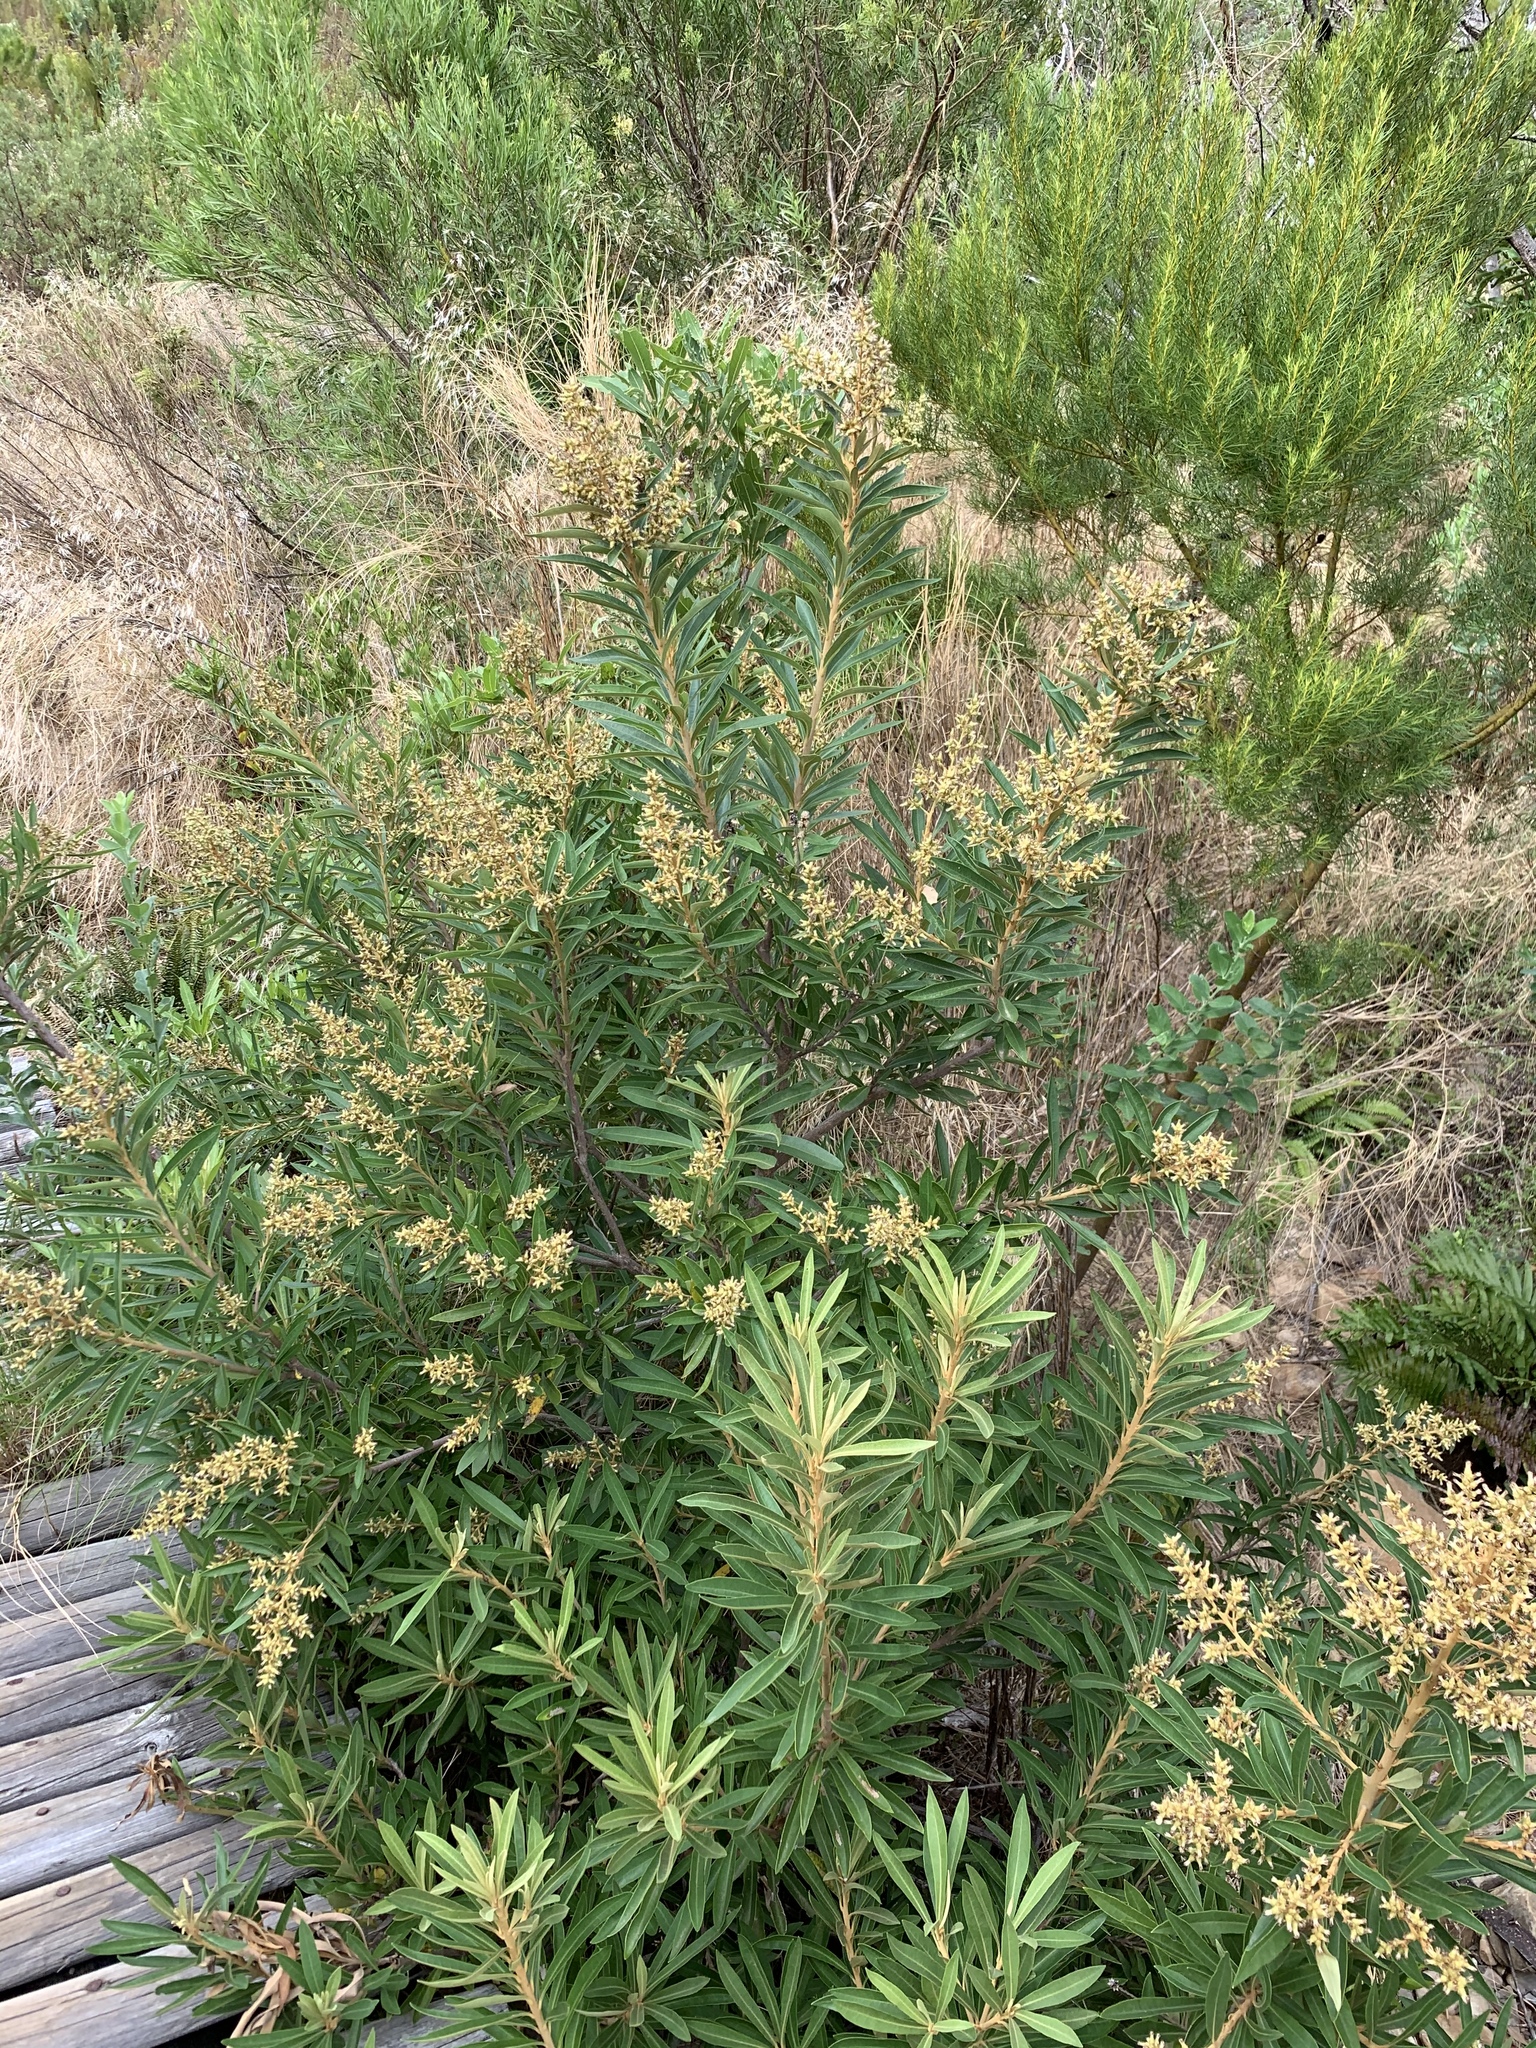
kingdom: Plantae
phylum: Tracheophyta
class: Magnoliopsida
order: Asterales
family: Asteraceae
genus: Brachylaena
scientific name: Brachylaena neriifolia
